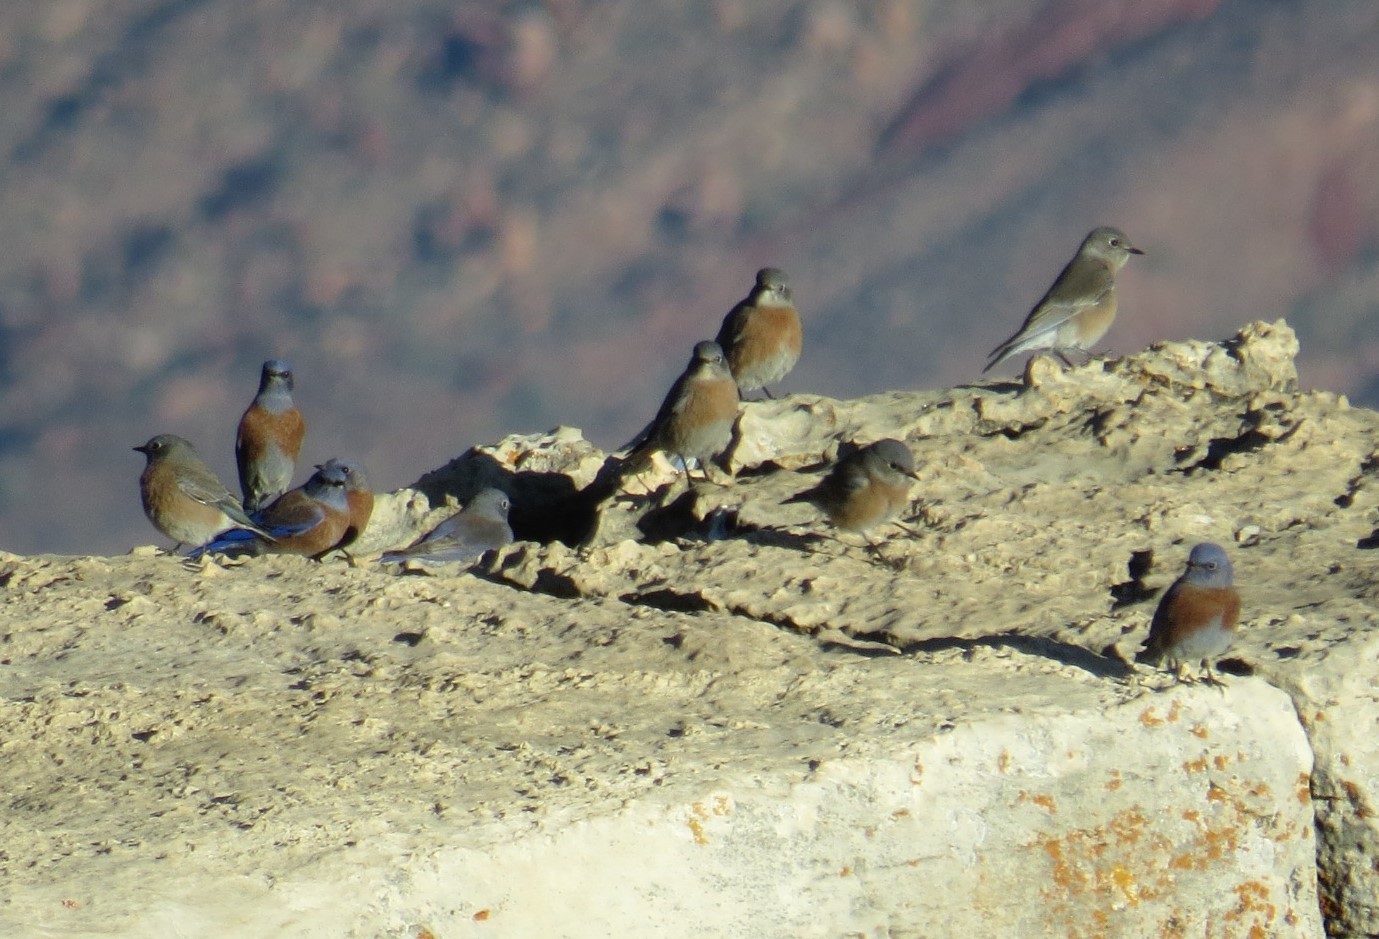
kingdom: Animalia
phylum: Chordata
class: Aves
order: Passeriformes
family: Turdidae
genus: Sialia
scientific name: Sialia mexicana
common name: Western bluebird
